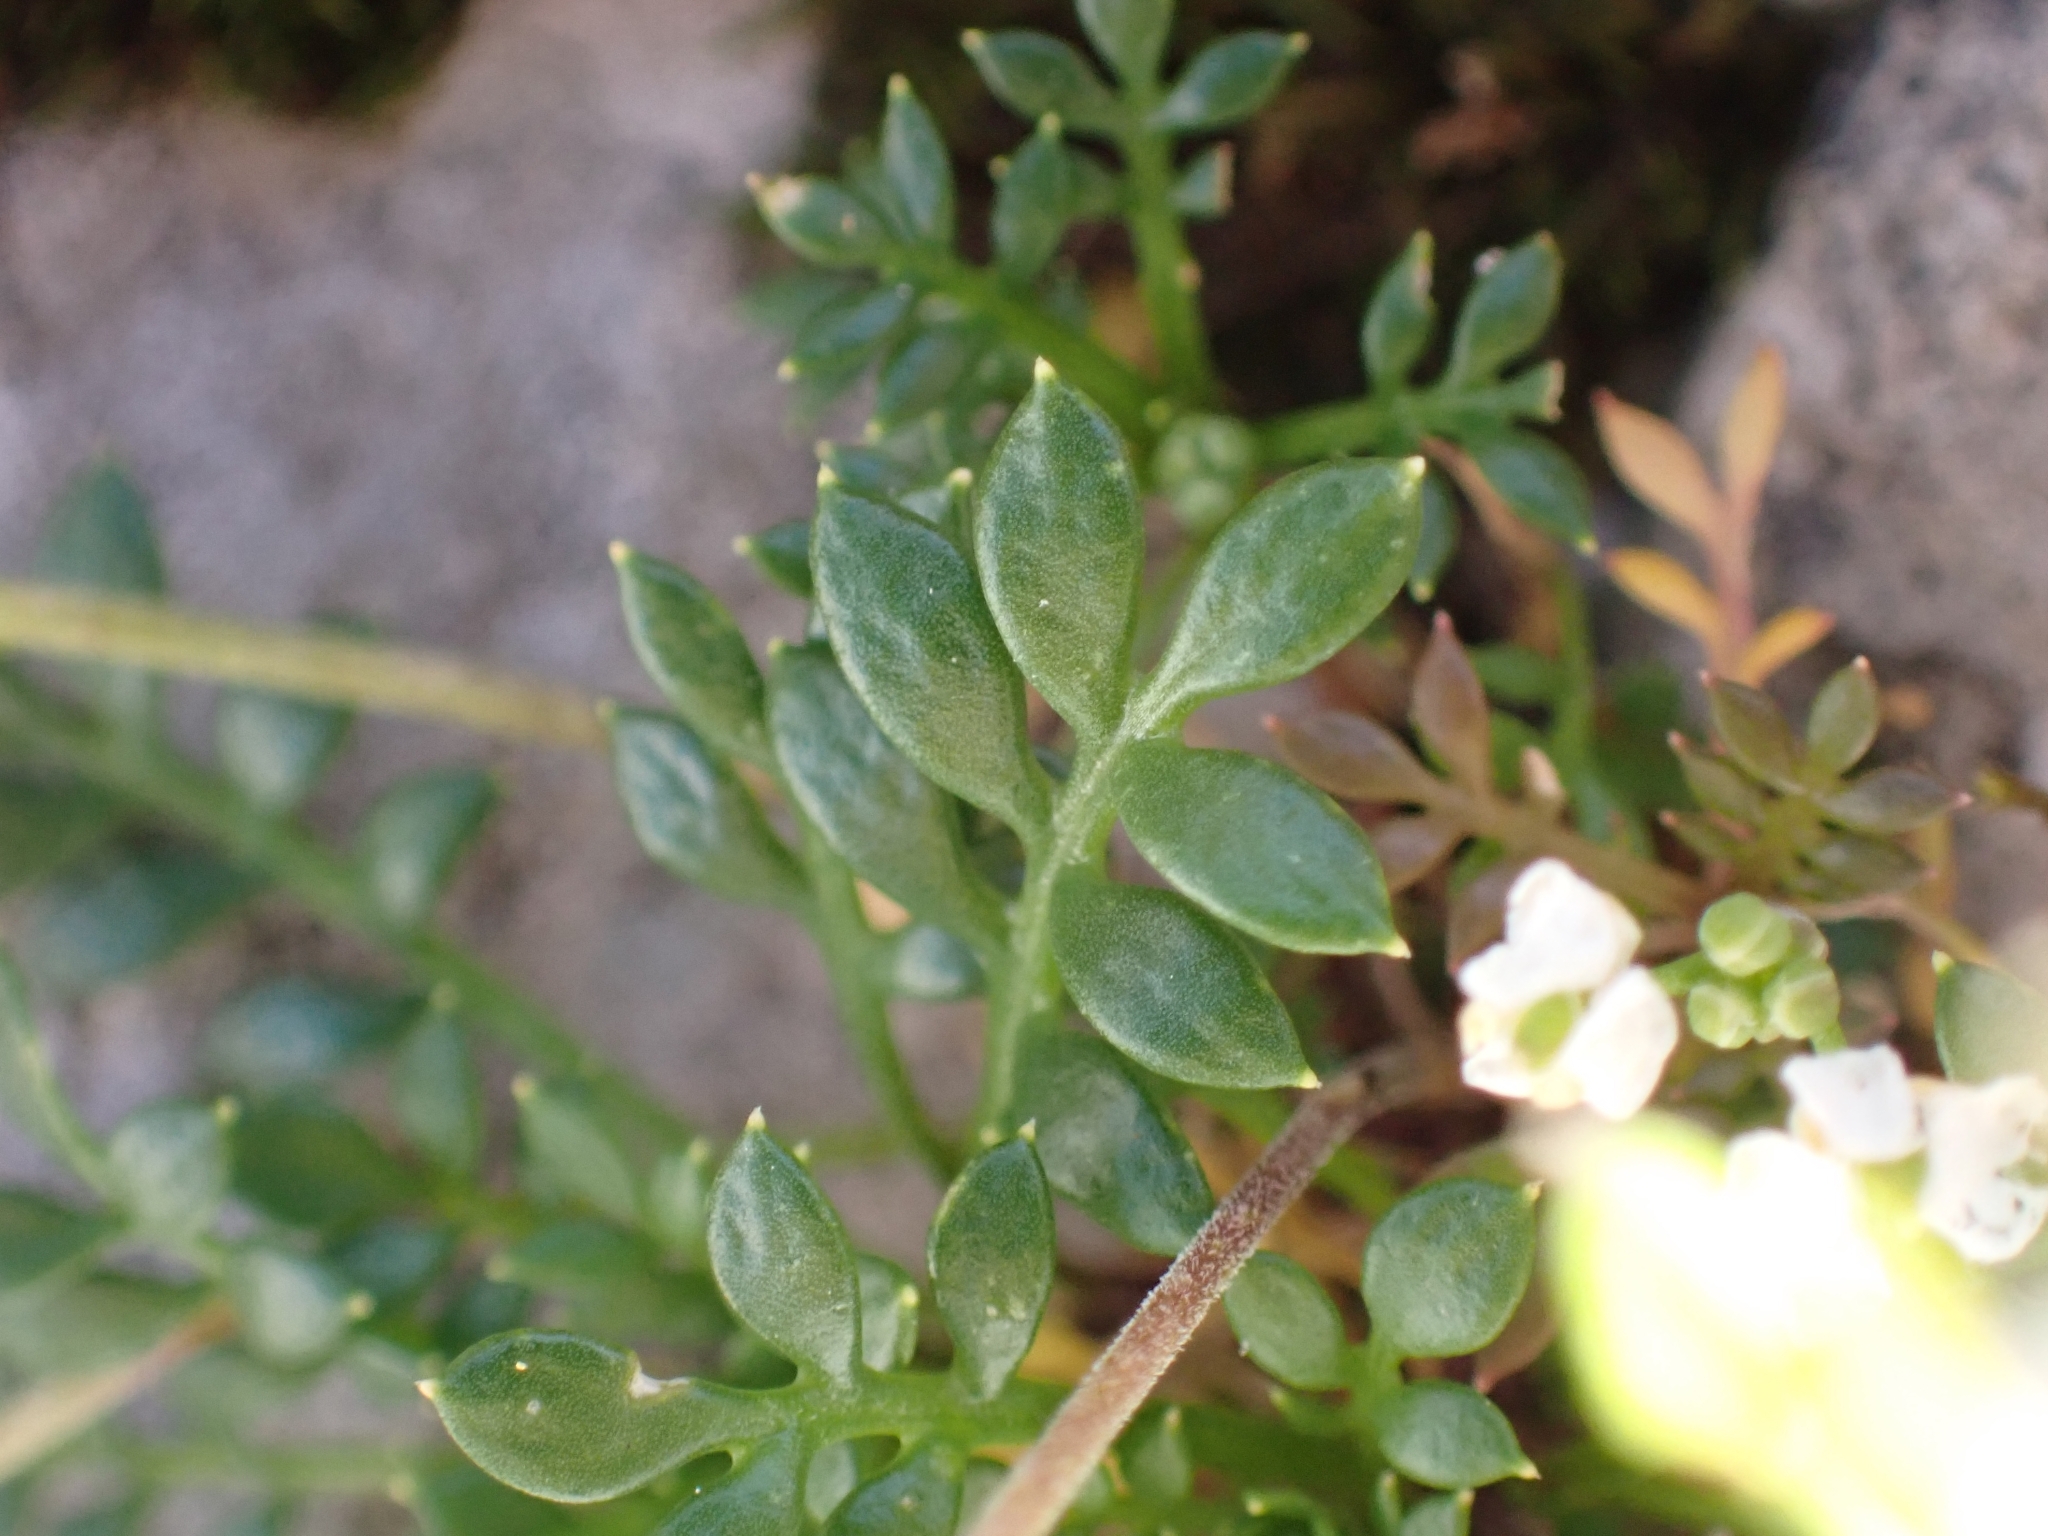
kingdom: Plantae
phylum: Tracheophyta
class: Magnoliopsida
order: Brassicales
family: Brassicaceae
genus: Hornungia
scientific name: Hornungia alpina
